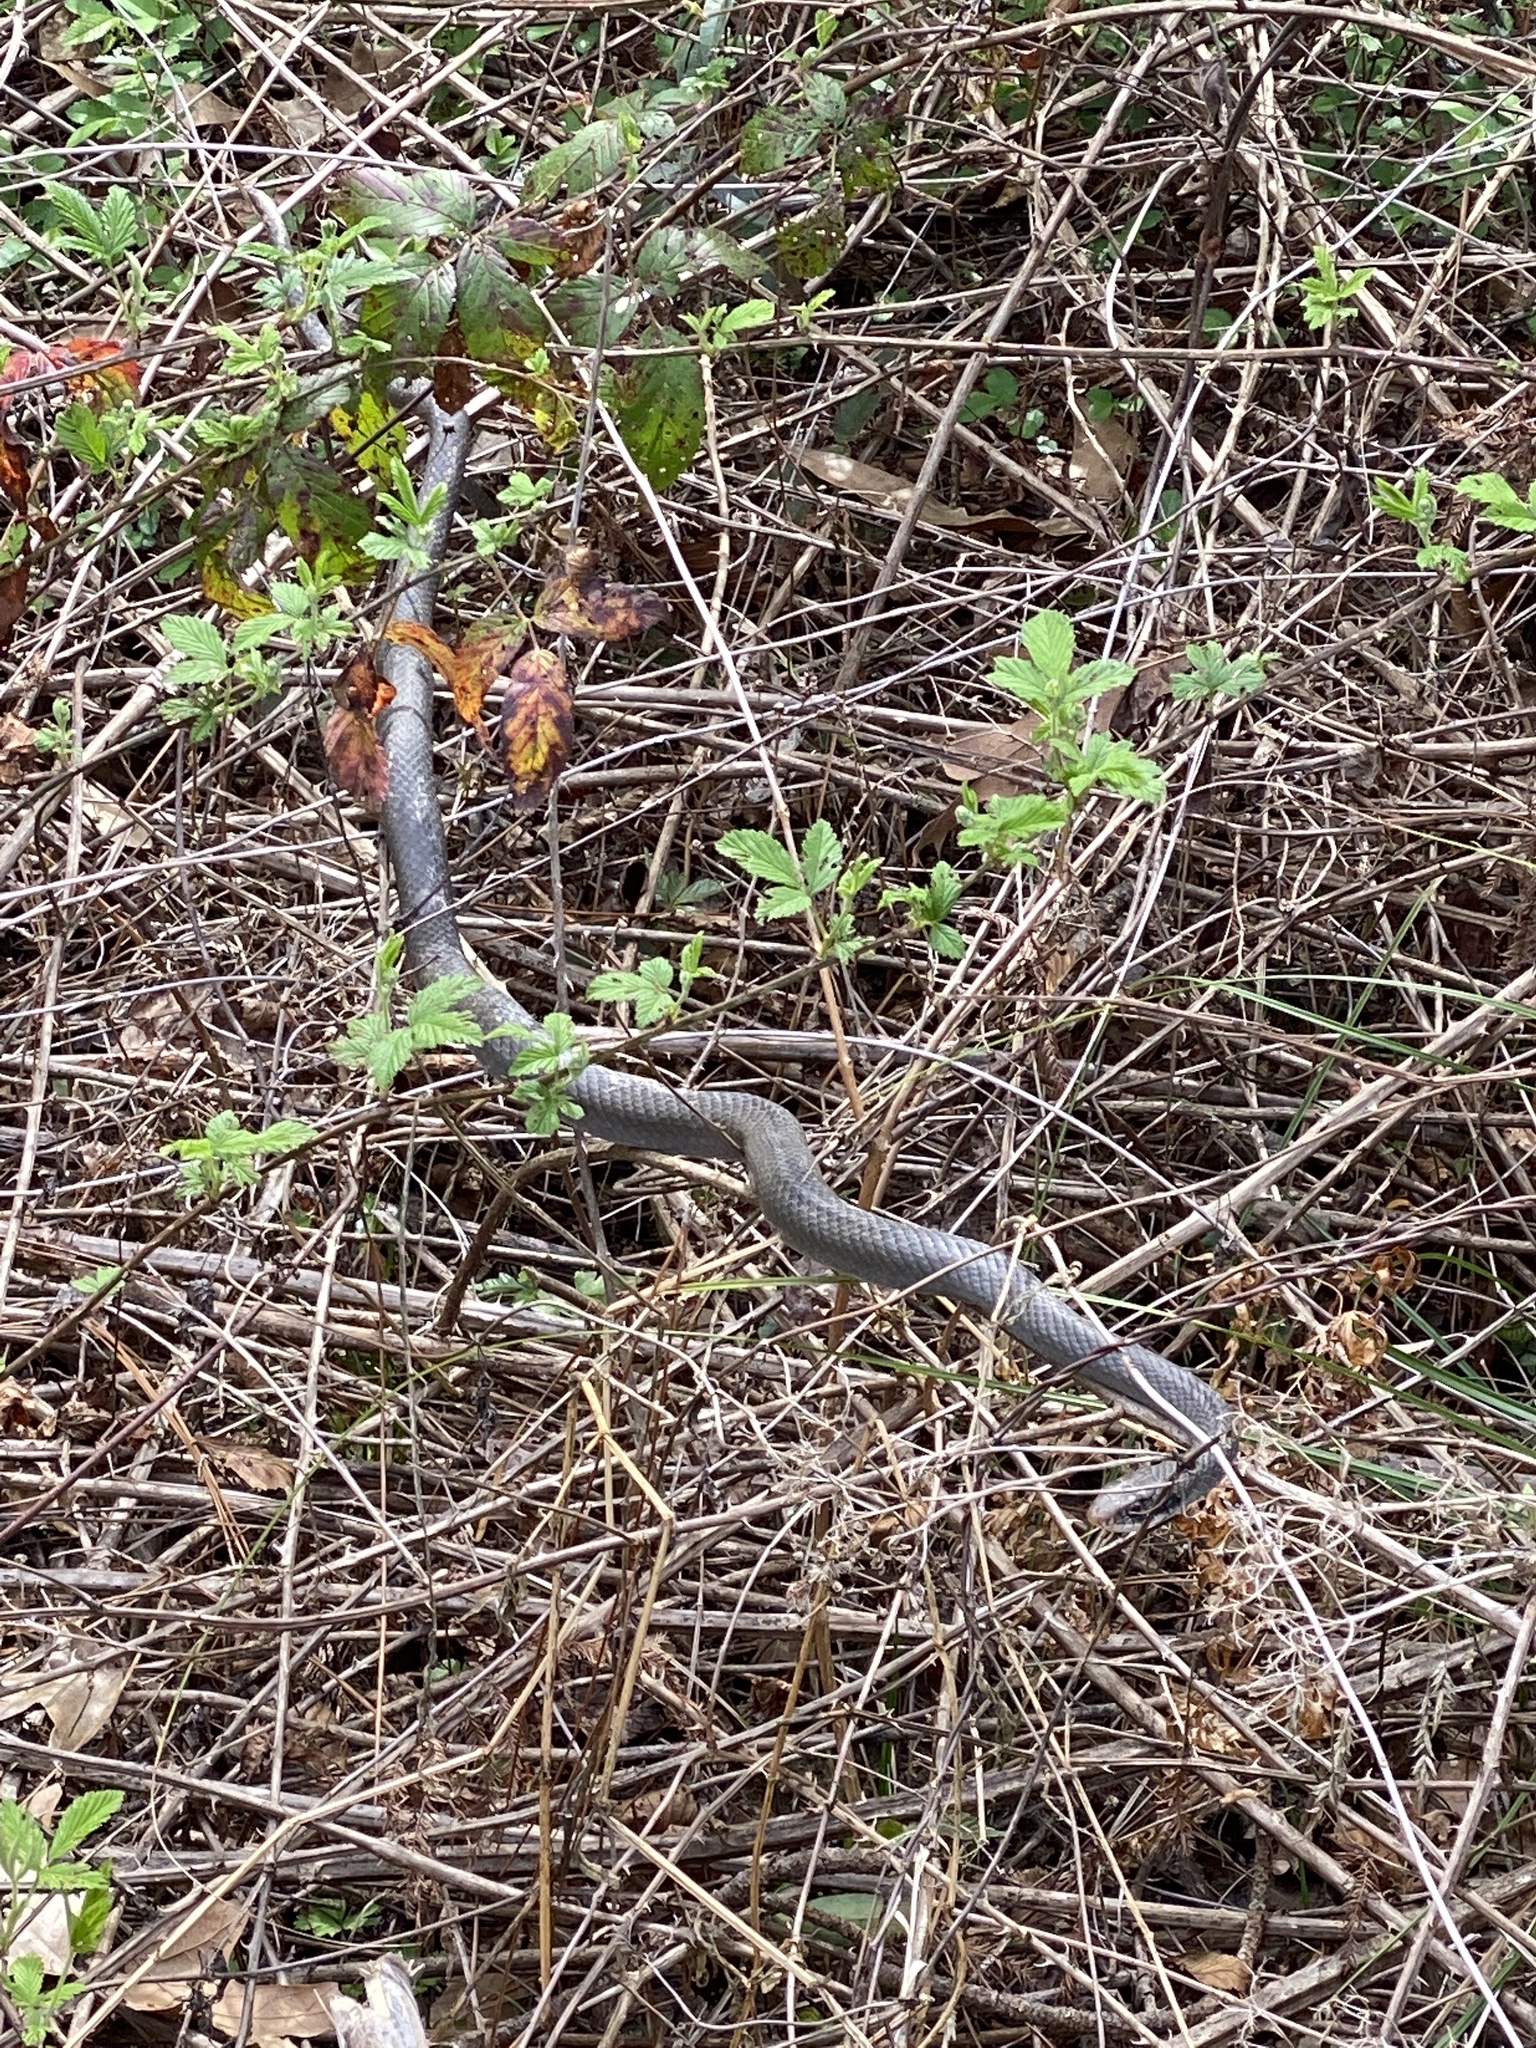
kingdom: Animalia
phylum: Chordata
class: Squamata
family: Colubridae
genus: Coluber
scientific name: Coluber constrictor
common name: Eastern racer
